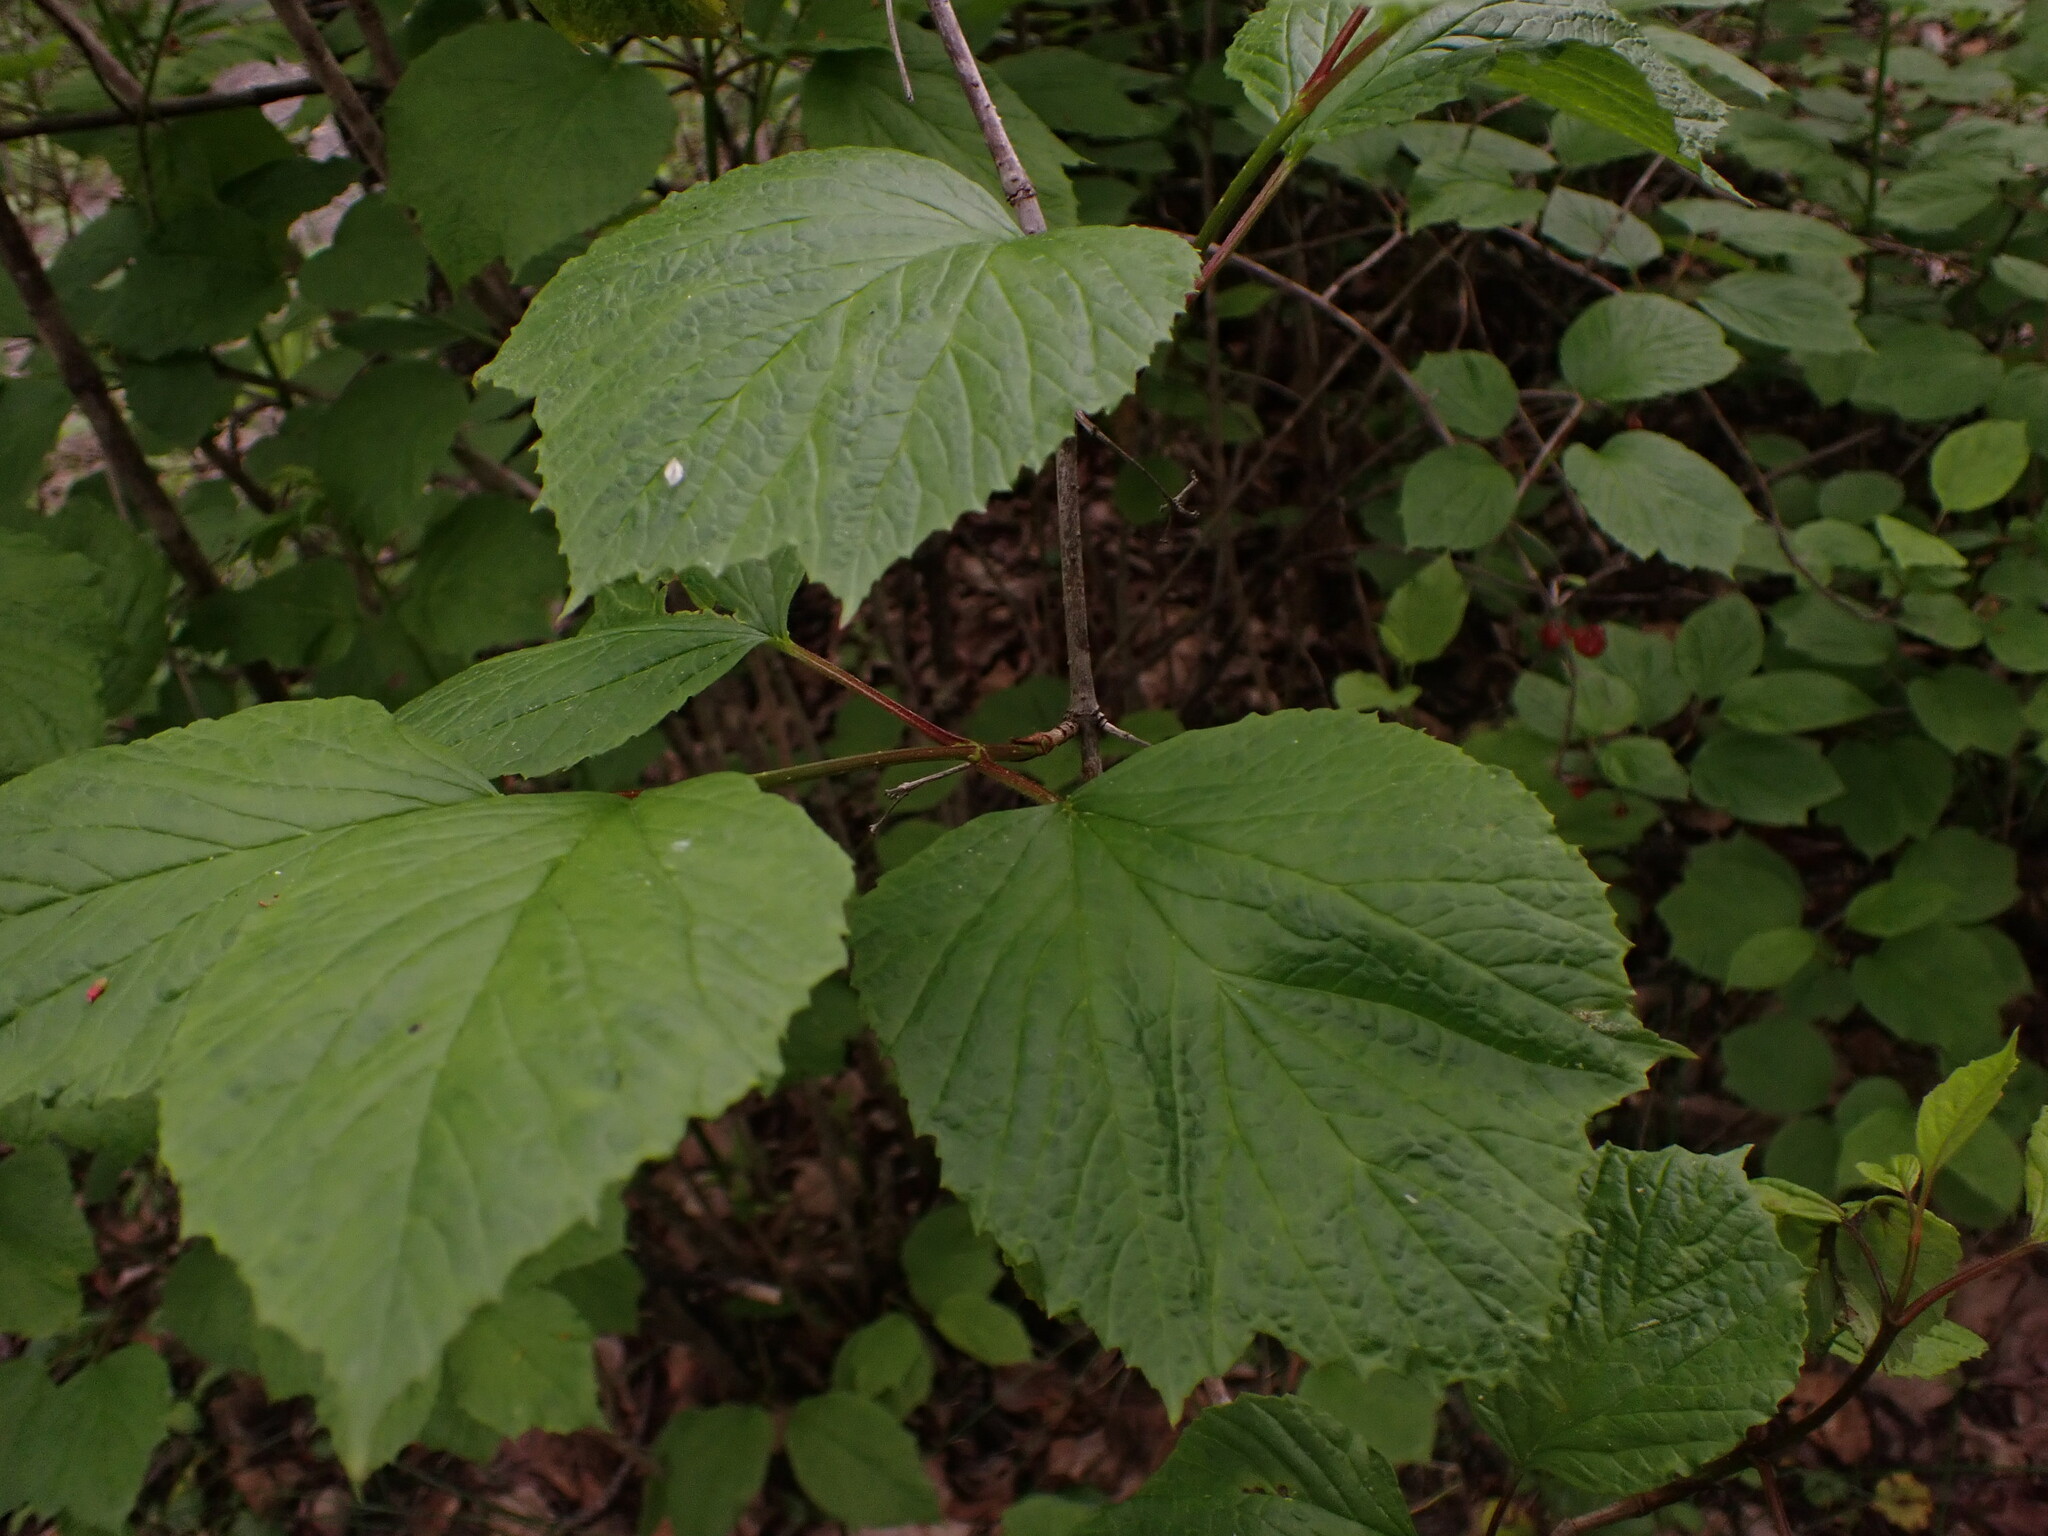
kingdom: Plantae
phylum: Tracheophyta
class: Magnoliopsida
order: Dipsacales
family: Viburnaceae
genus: Viburnum
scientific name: Viburnum edule
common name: Mooseberry
